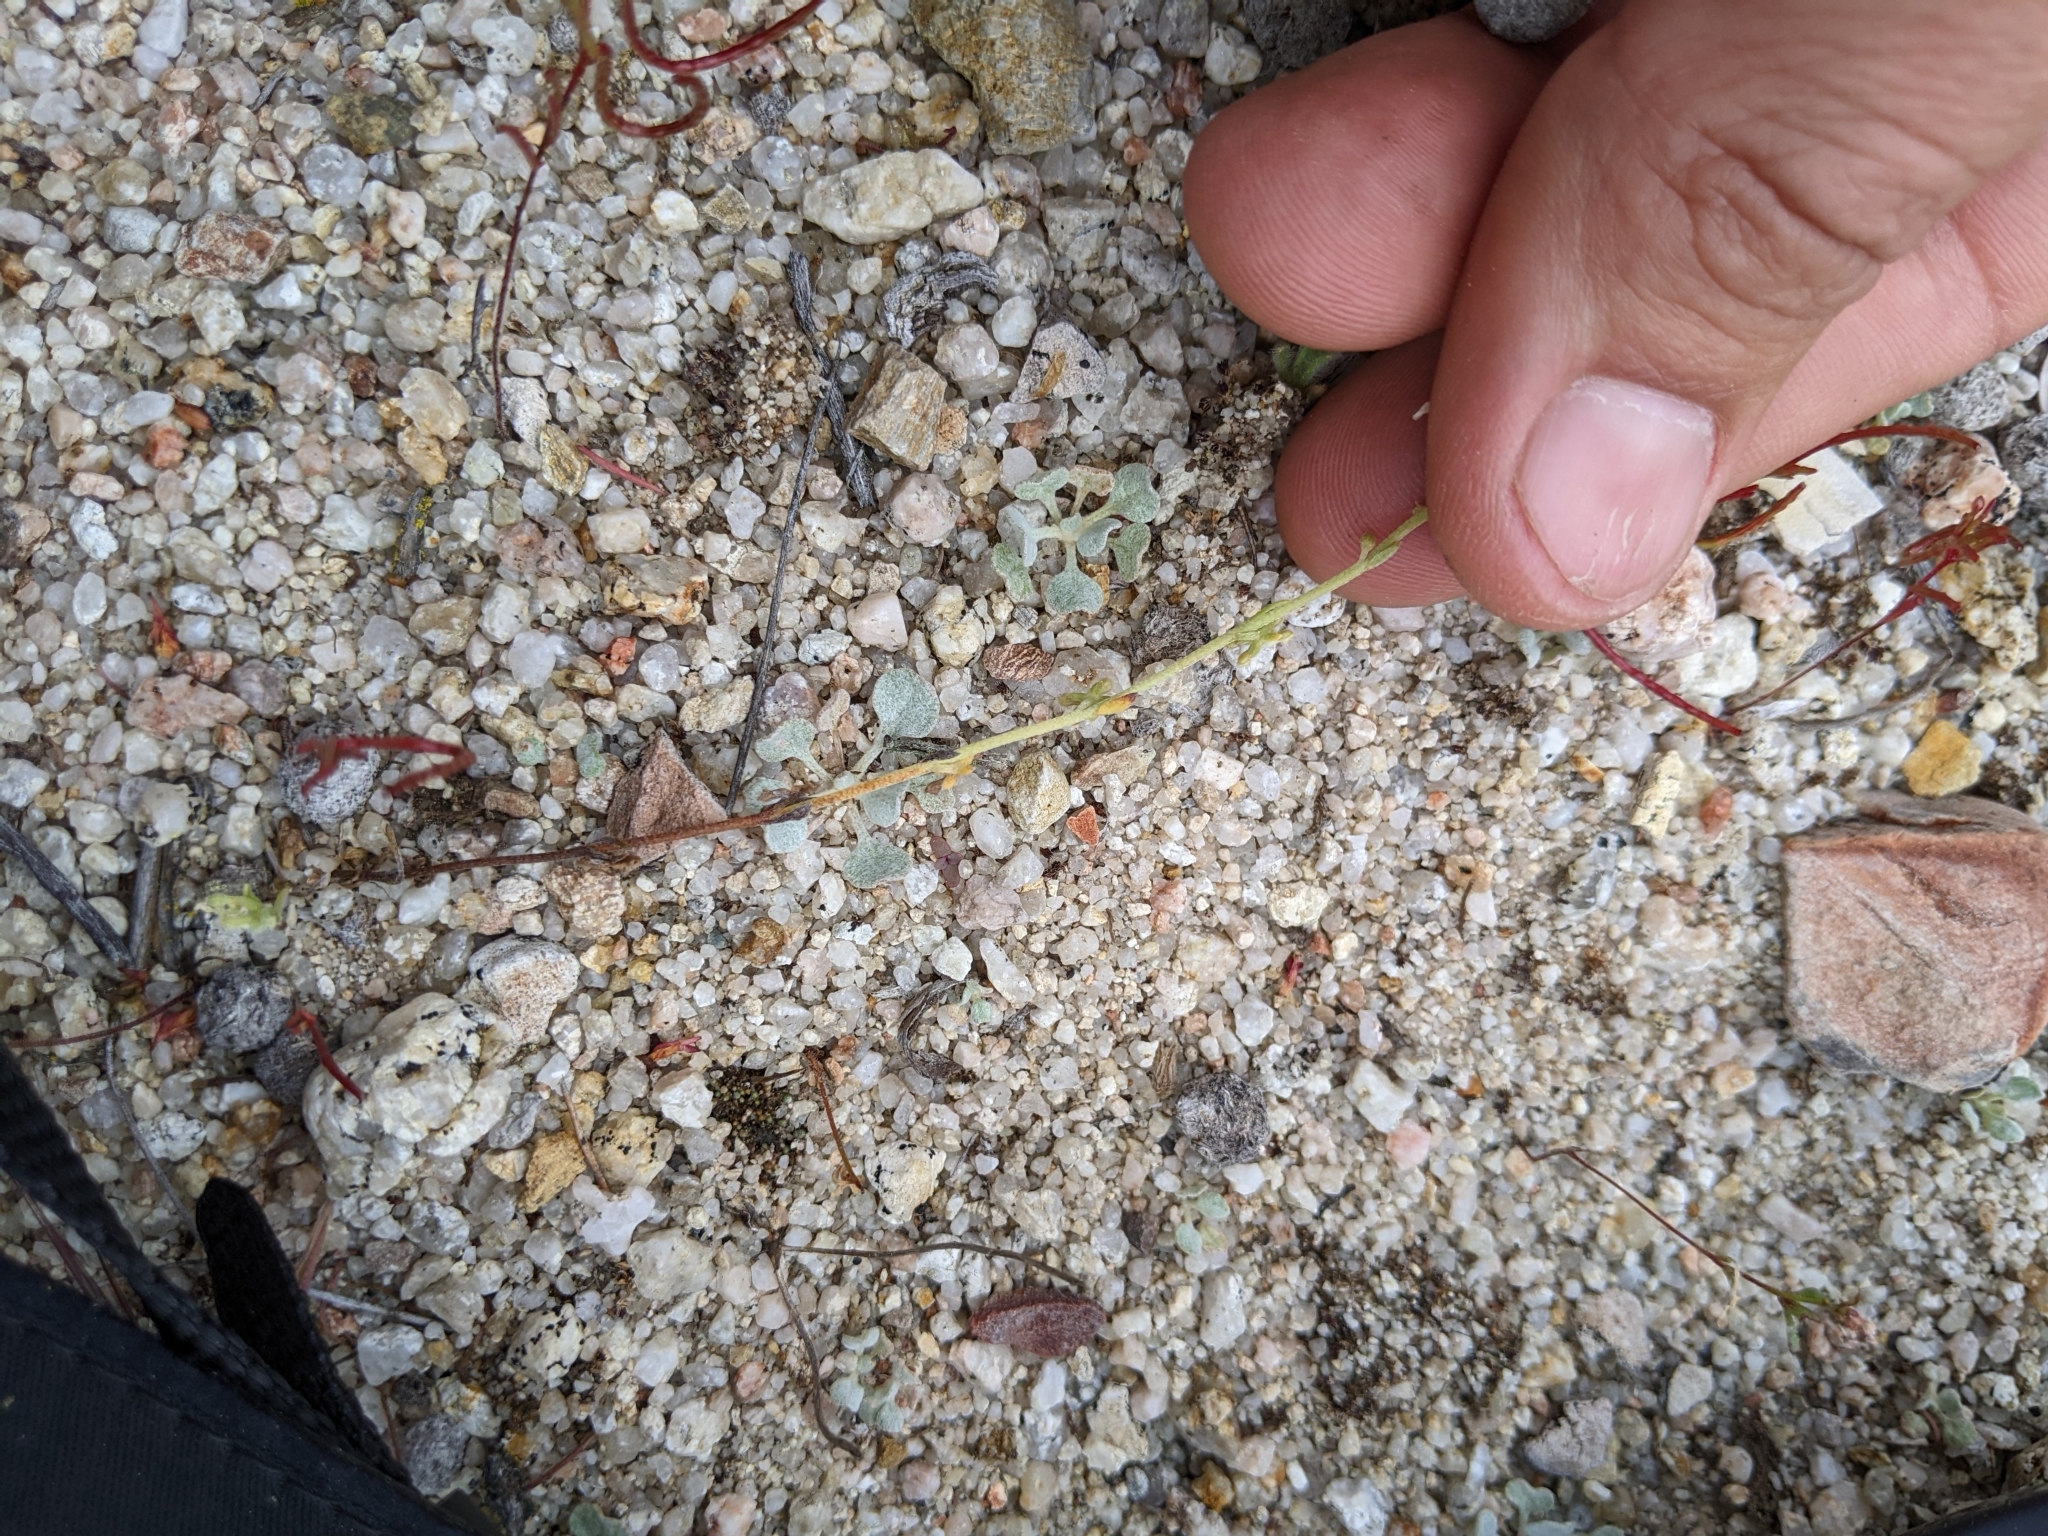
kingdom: Plantae
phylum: Tracheophyta
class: Magnoliopsida
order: Boraginales
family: Boraginaceae
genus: Pectocarya
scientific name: Pectocarya penicillata
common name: Short-leaved combseed
